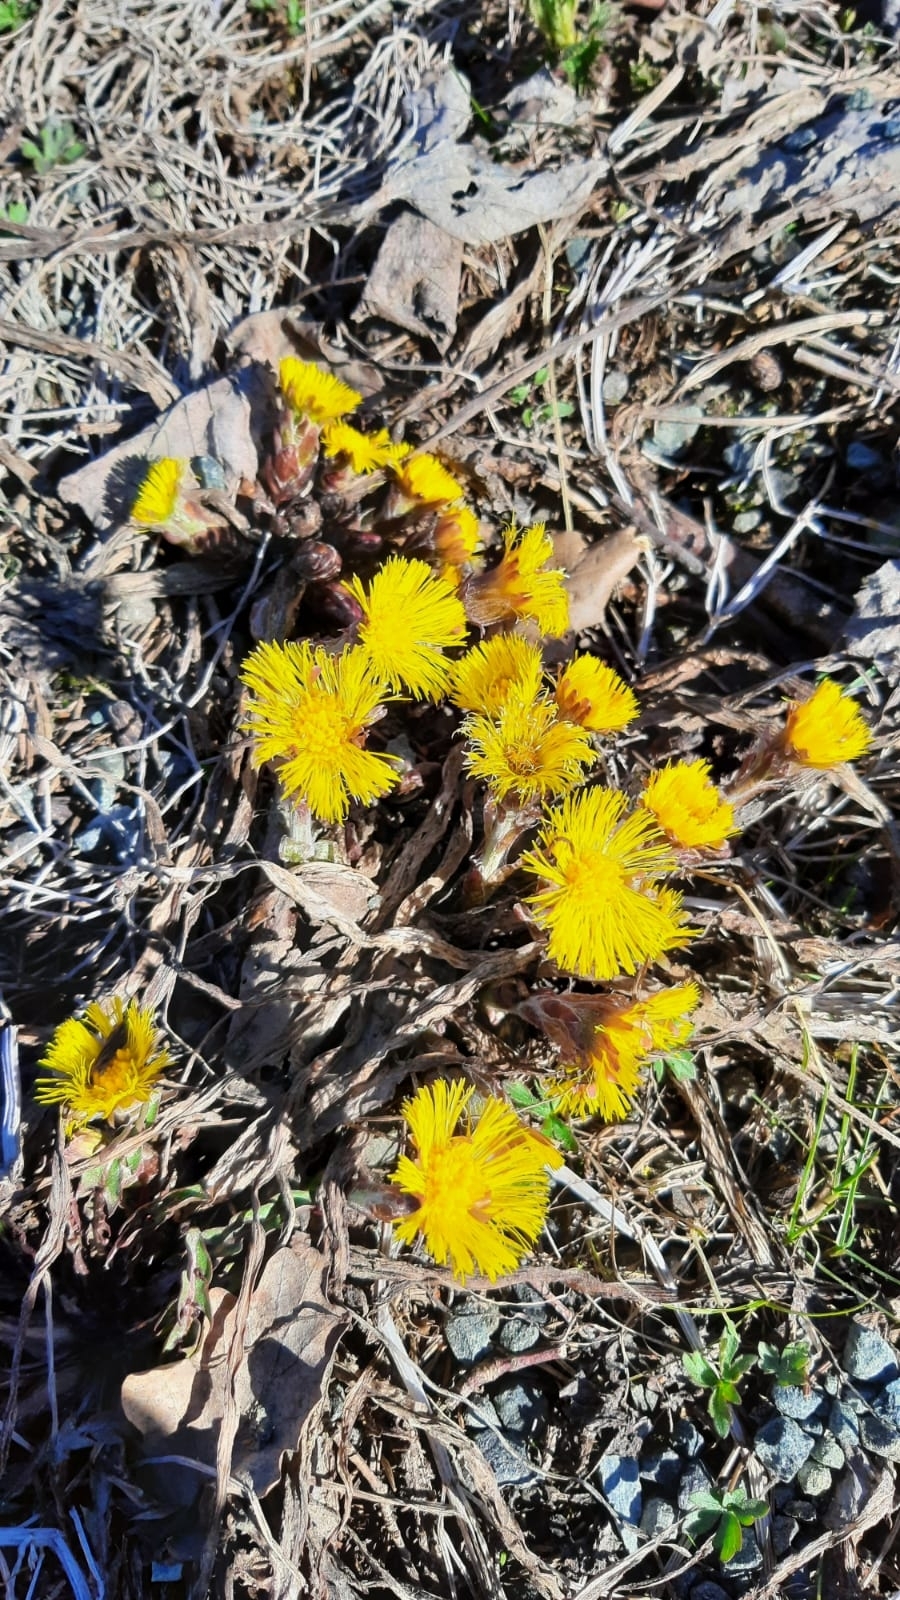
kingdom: Plantae
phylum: Tracheophyta
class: Magnoliopsida
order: Asterales
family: Asteraceae
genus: Tussilago
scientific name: Tussilago farfara
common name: Coltsfoot
